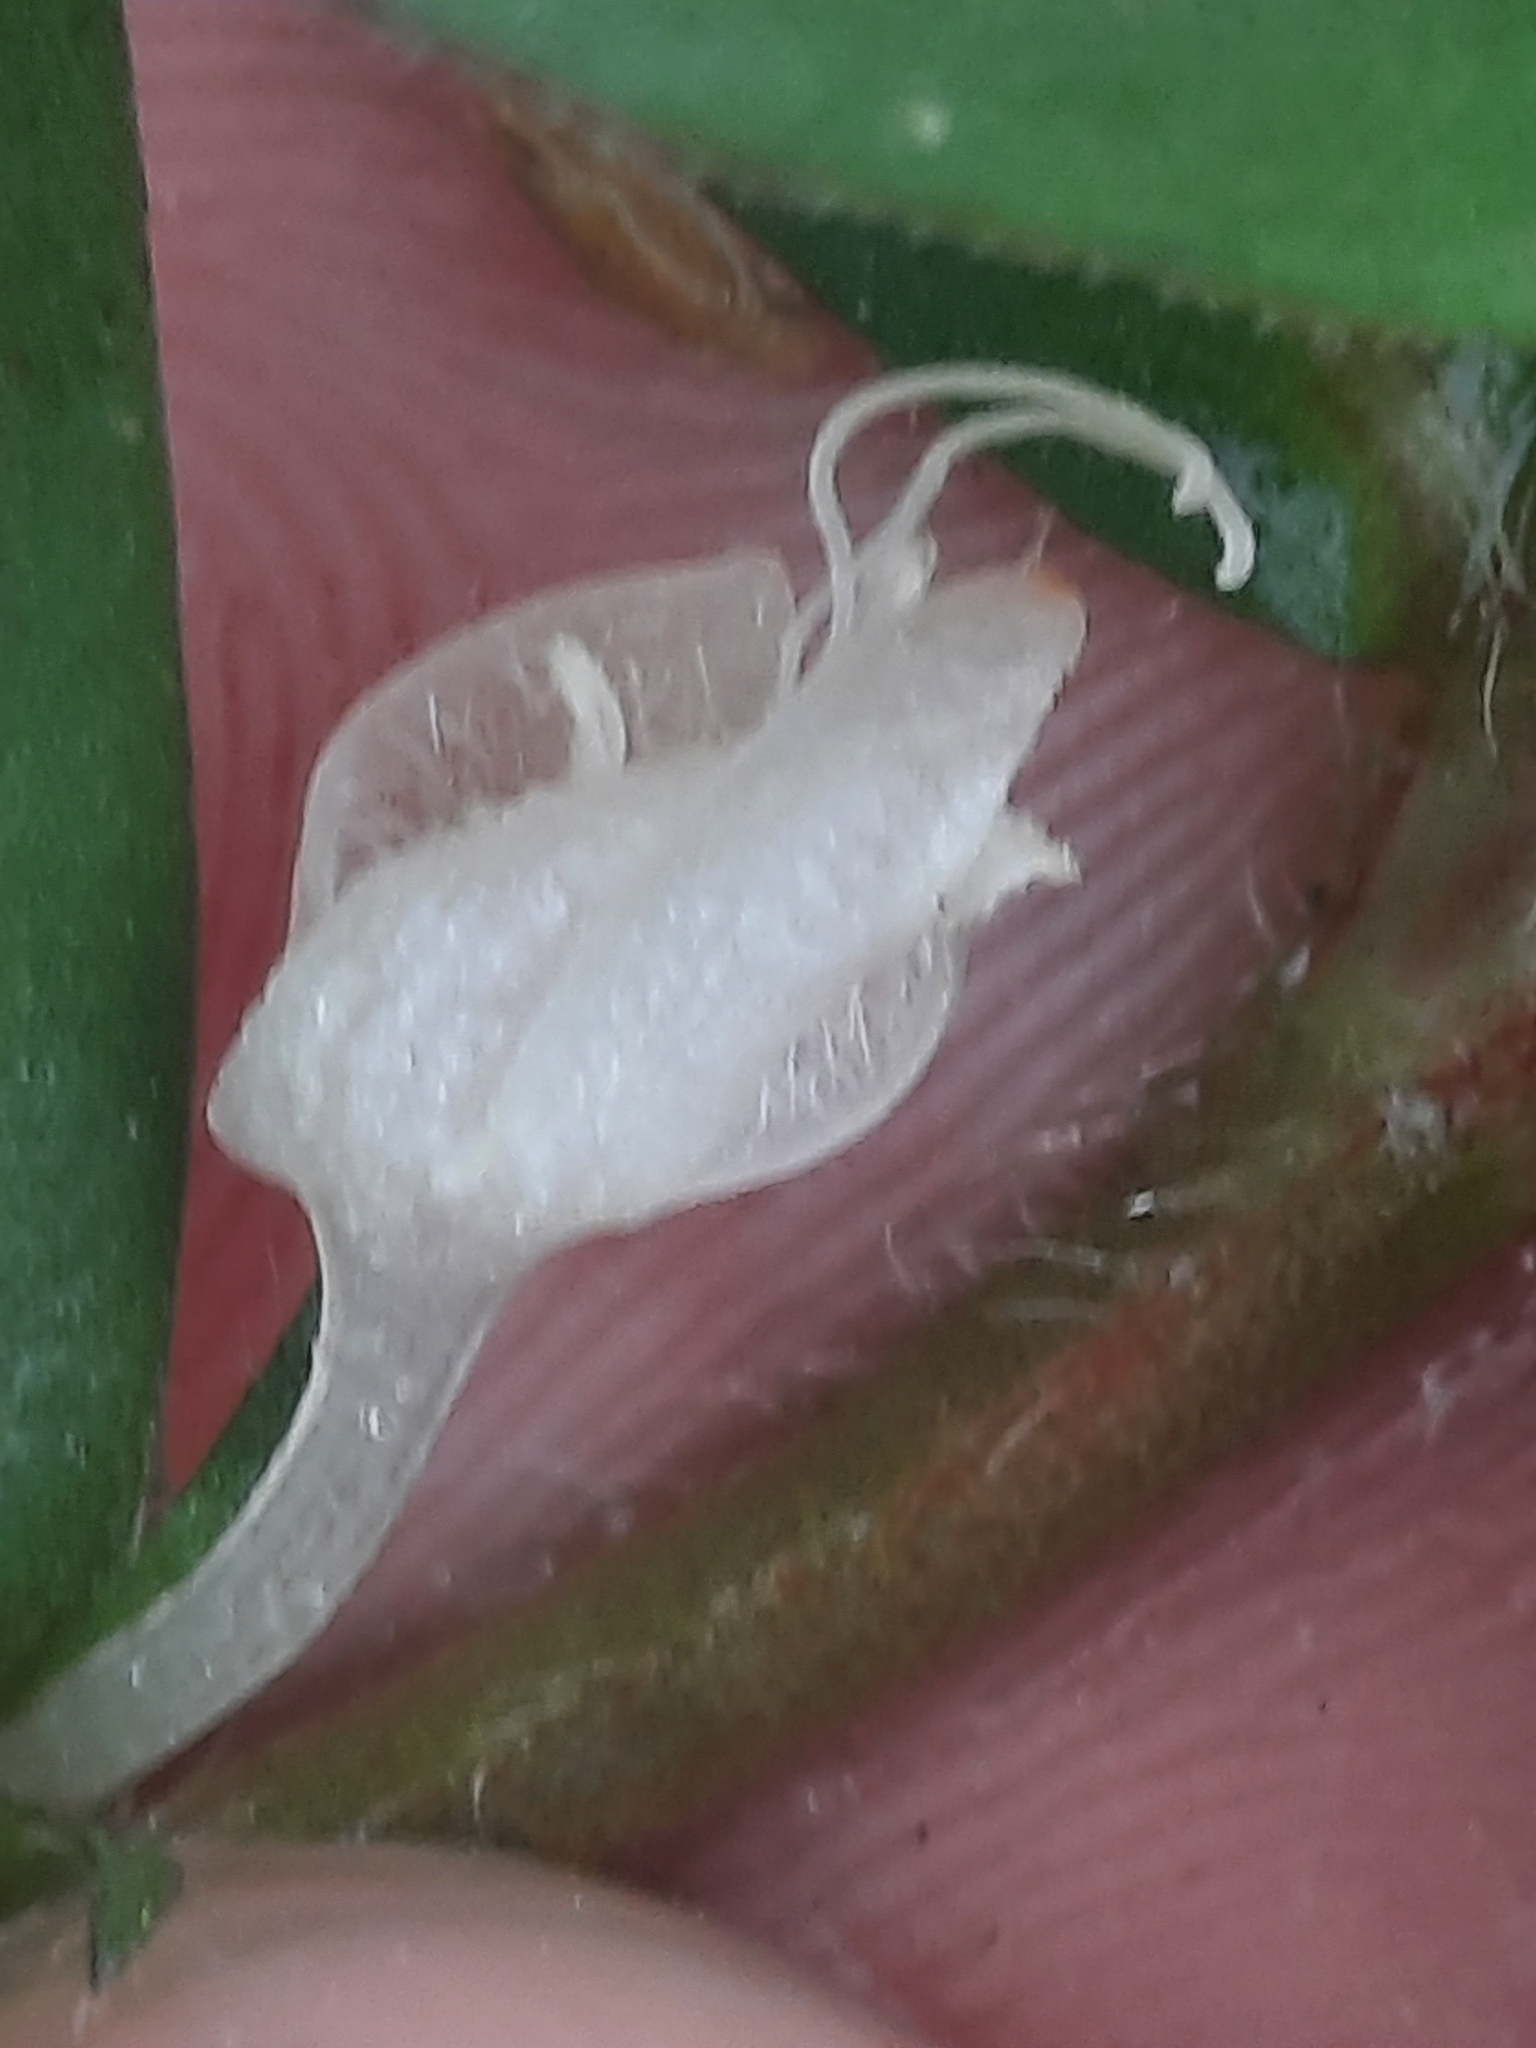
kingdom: Plantae
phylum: Tracheophyta
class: Magnoliopsida
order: Gentianales
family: Rubiaceae
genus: Diodia
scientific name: Diodia virginiana
